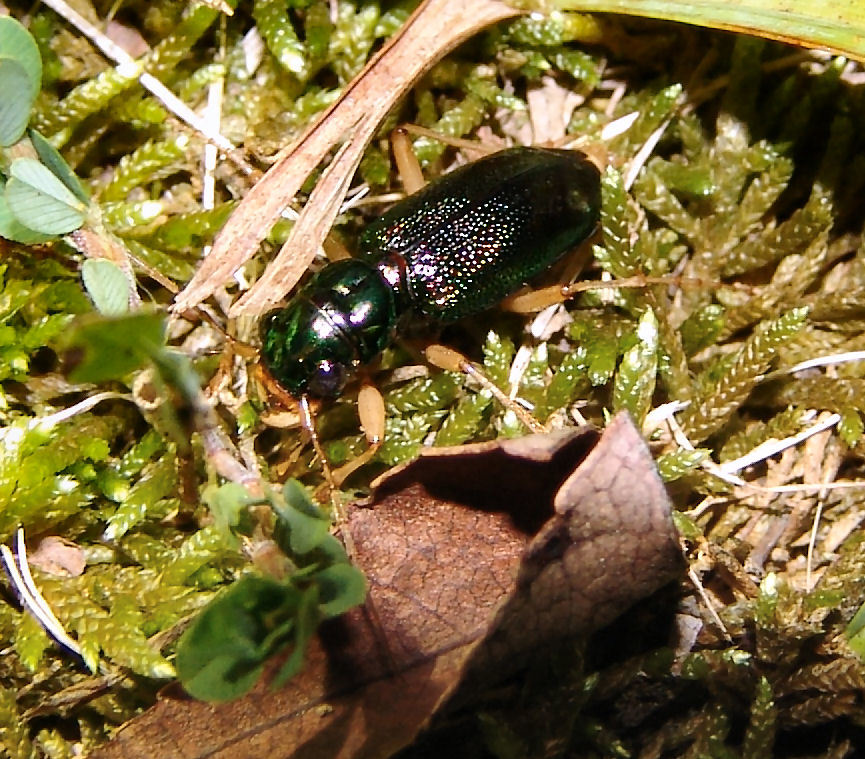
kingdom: Animalia
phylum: Arthropoda
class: Insecta
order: Coleoptera
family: Carabidae
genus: Tetracha
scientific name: Tetracha virginica
